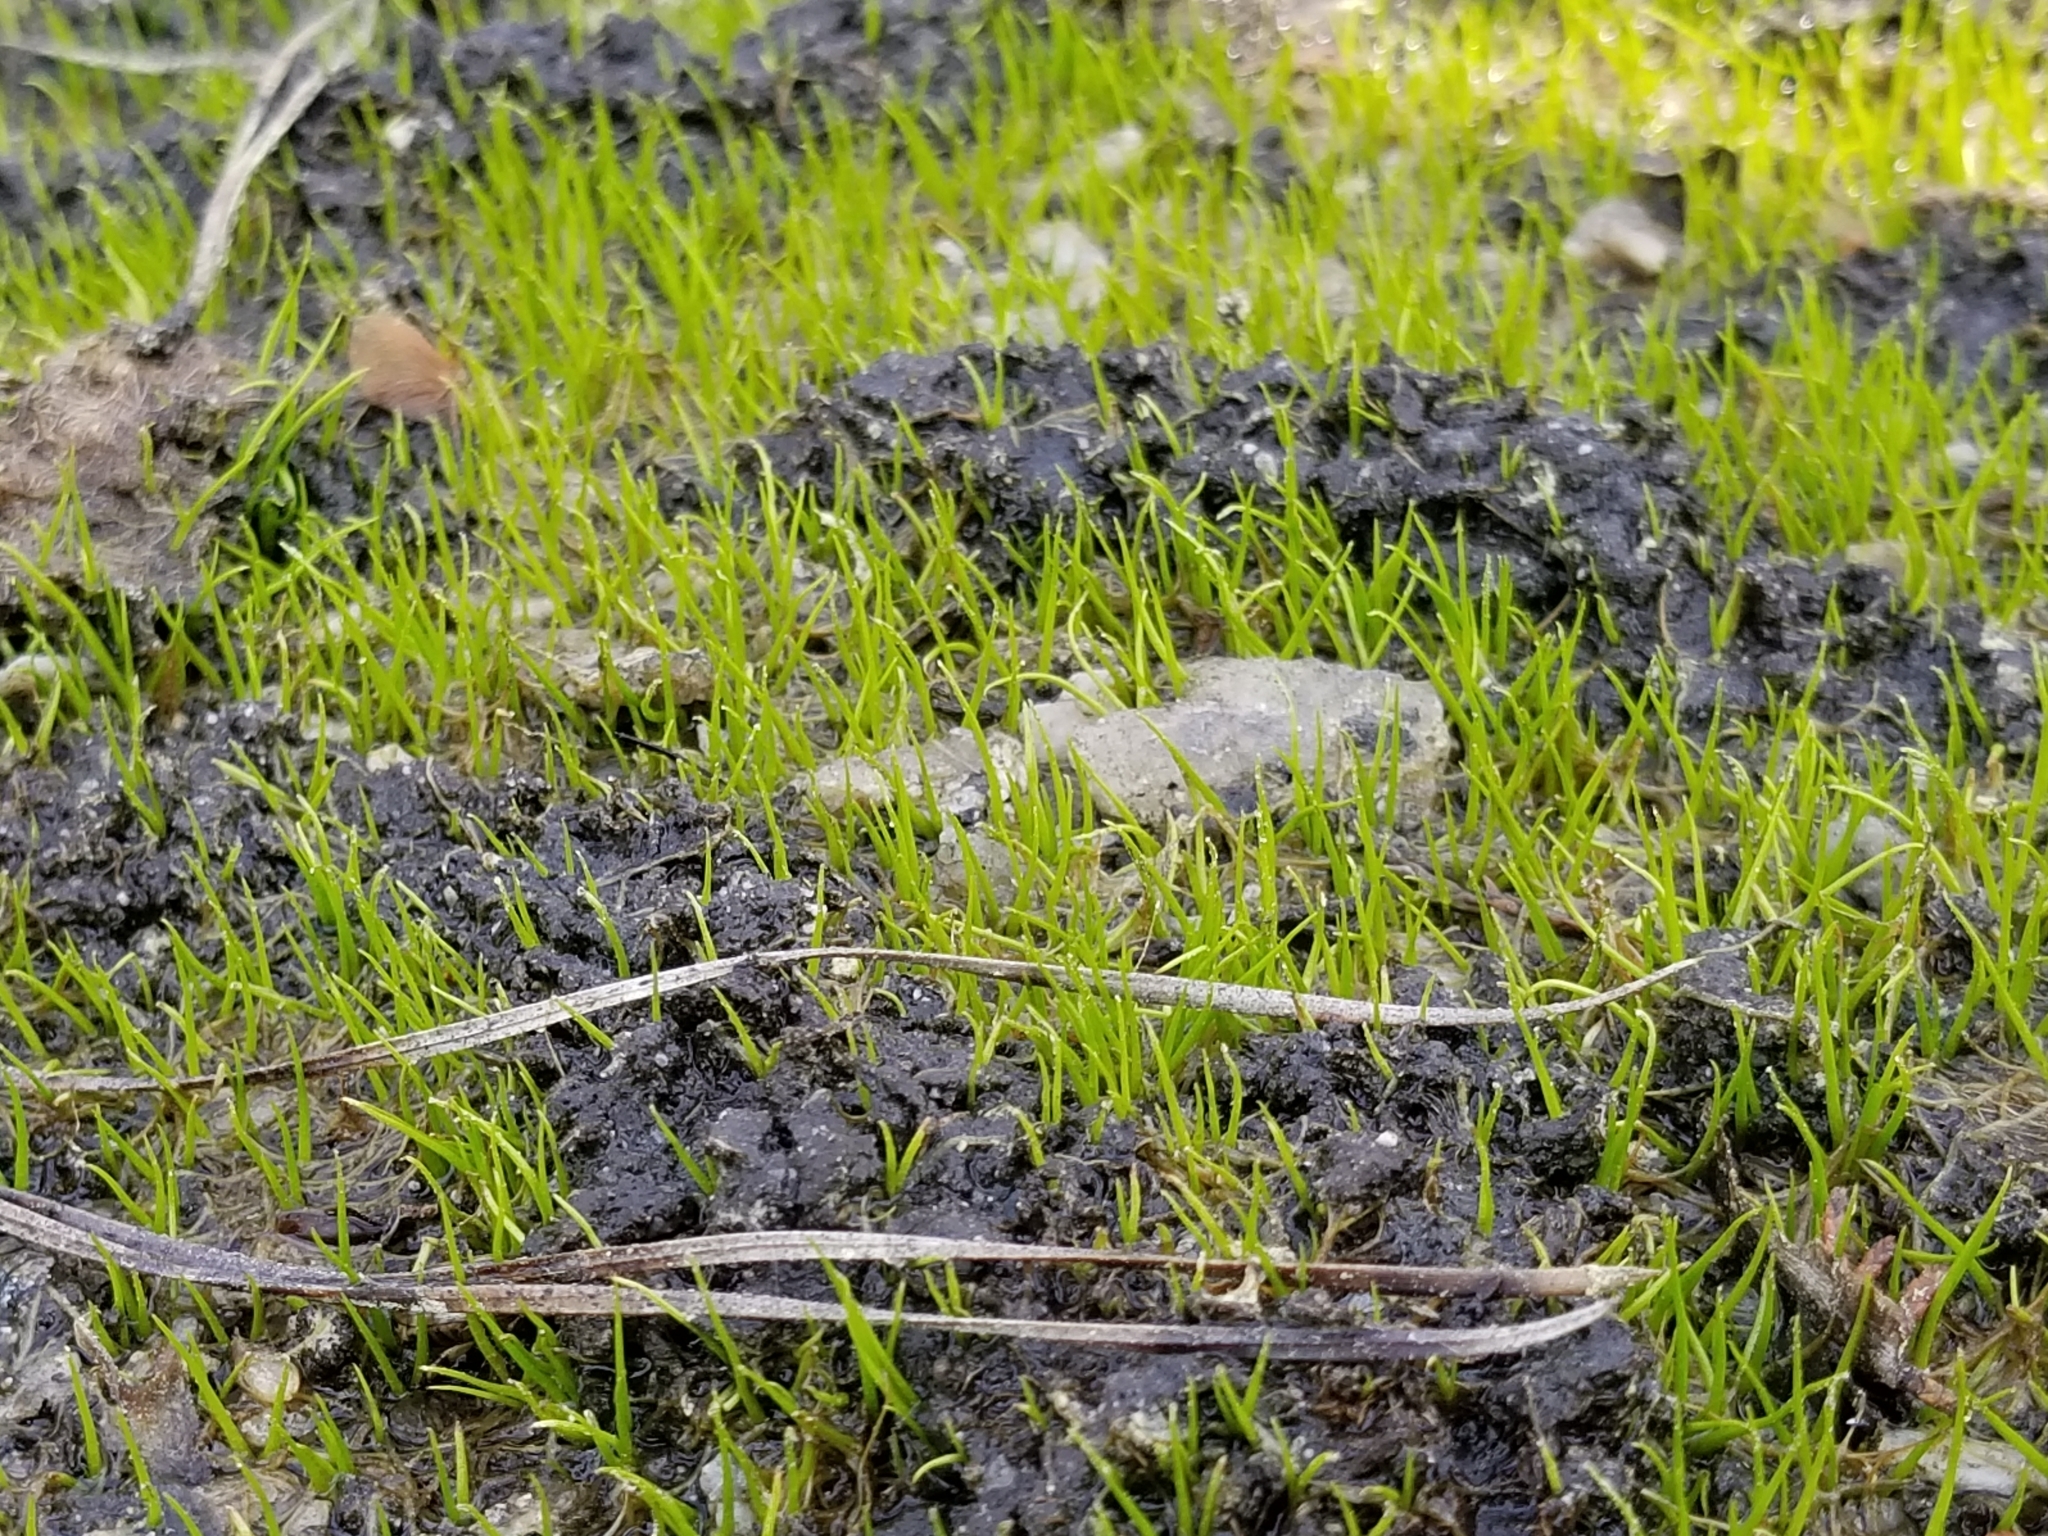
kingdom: Plantae
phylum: Tracheophyta
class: Lycopodiopsida
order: Isoetales
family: Isoetaceae
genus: Isoetes
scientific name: Isoetes tegetiformans
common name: Matform quillwort
